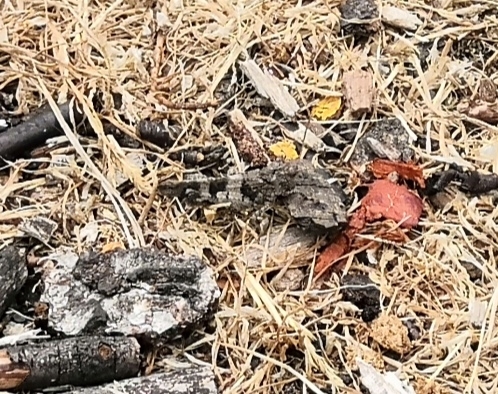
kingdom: Animalia
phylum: Arthropoda
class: Insecta
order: Orthoptera
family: Acrididae
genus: Oedipoda
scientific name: Oedipoda caerulescens
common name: Blue-winged grasshopper
